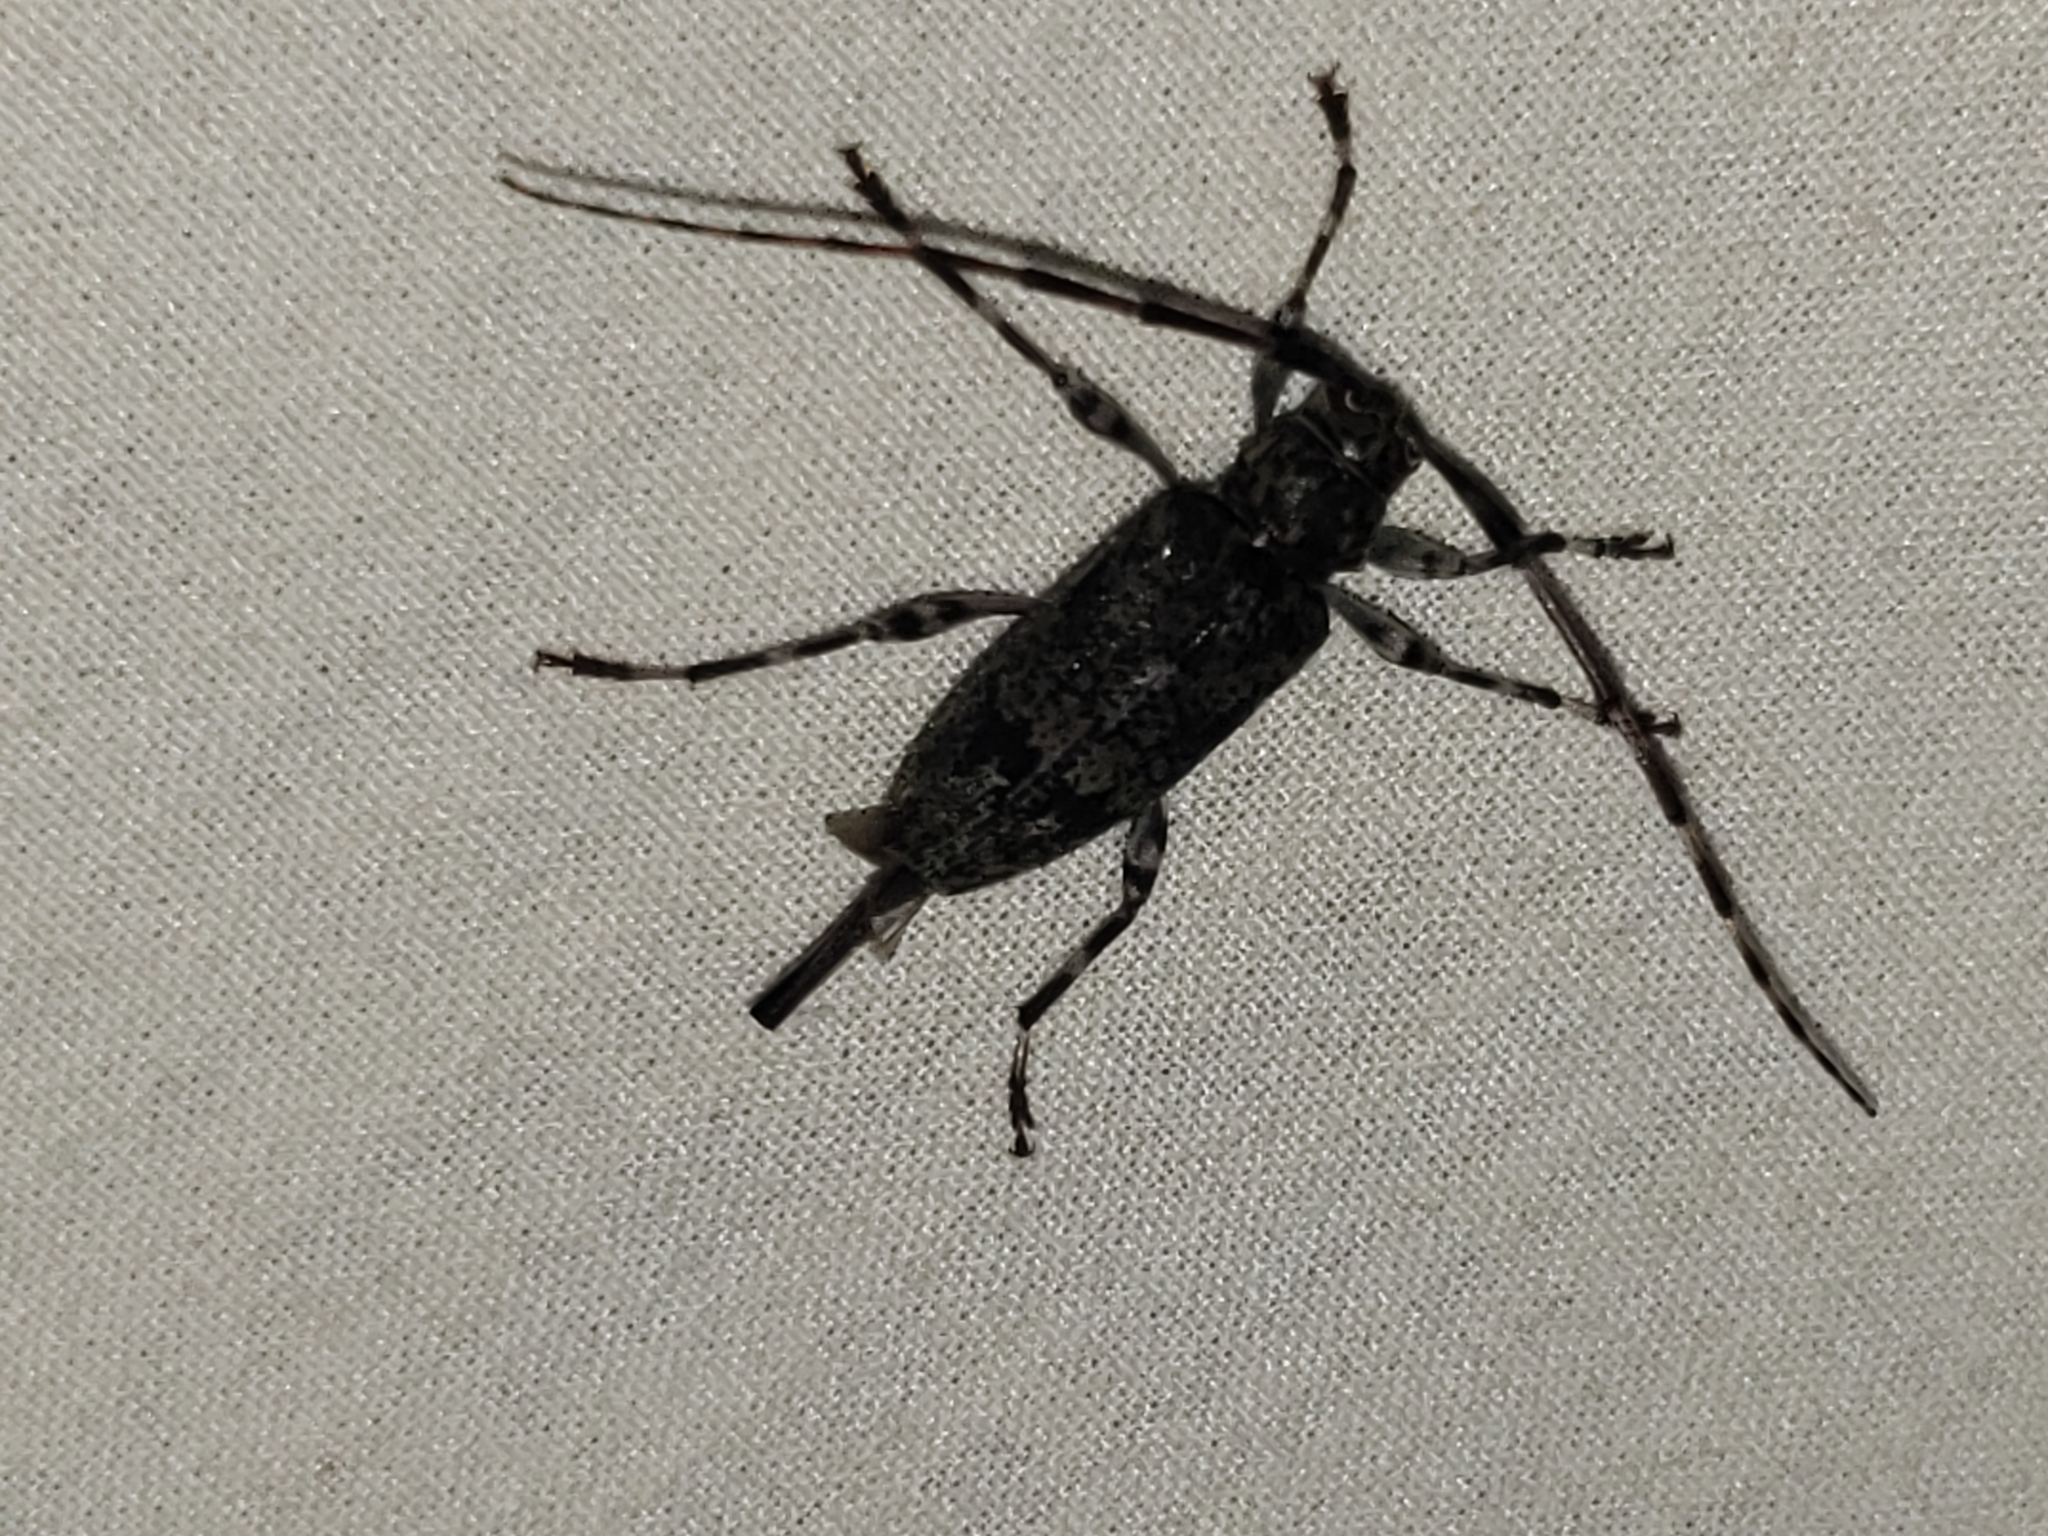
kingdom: Animalia
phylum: Arthropoda
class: Insecta
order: Coleoptera
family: Cerambycidae
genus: Graphisurus
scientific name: Graphisurus fasciatus
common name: Banded graphisurus
